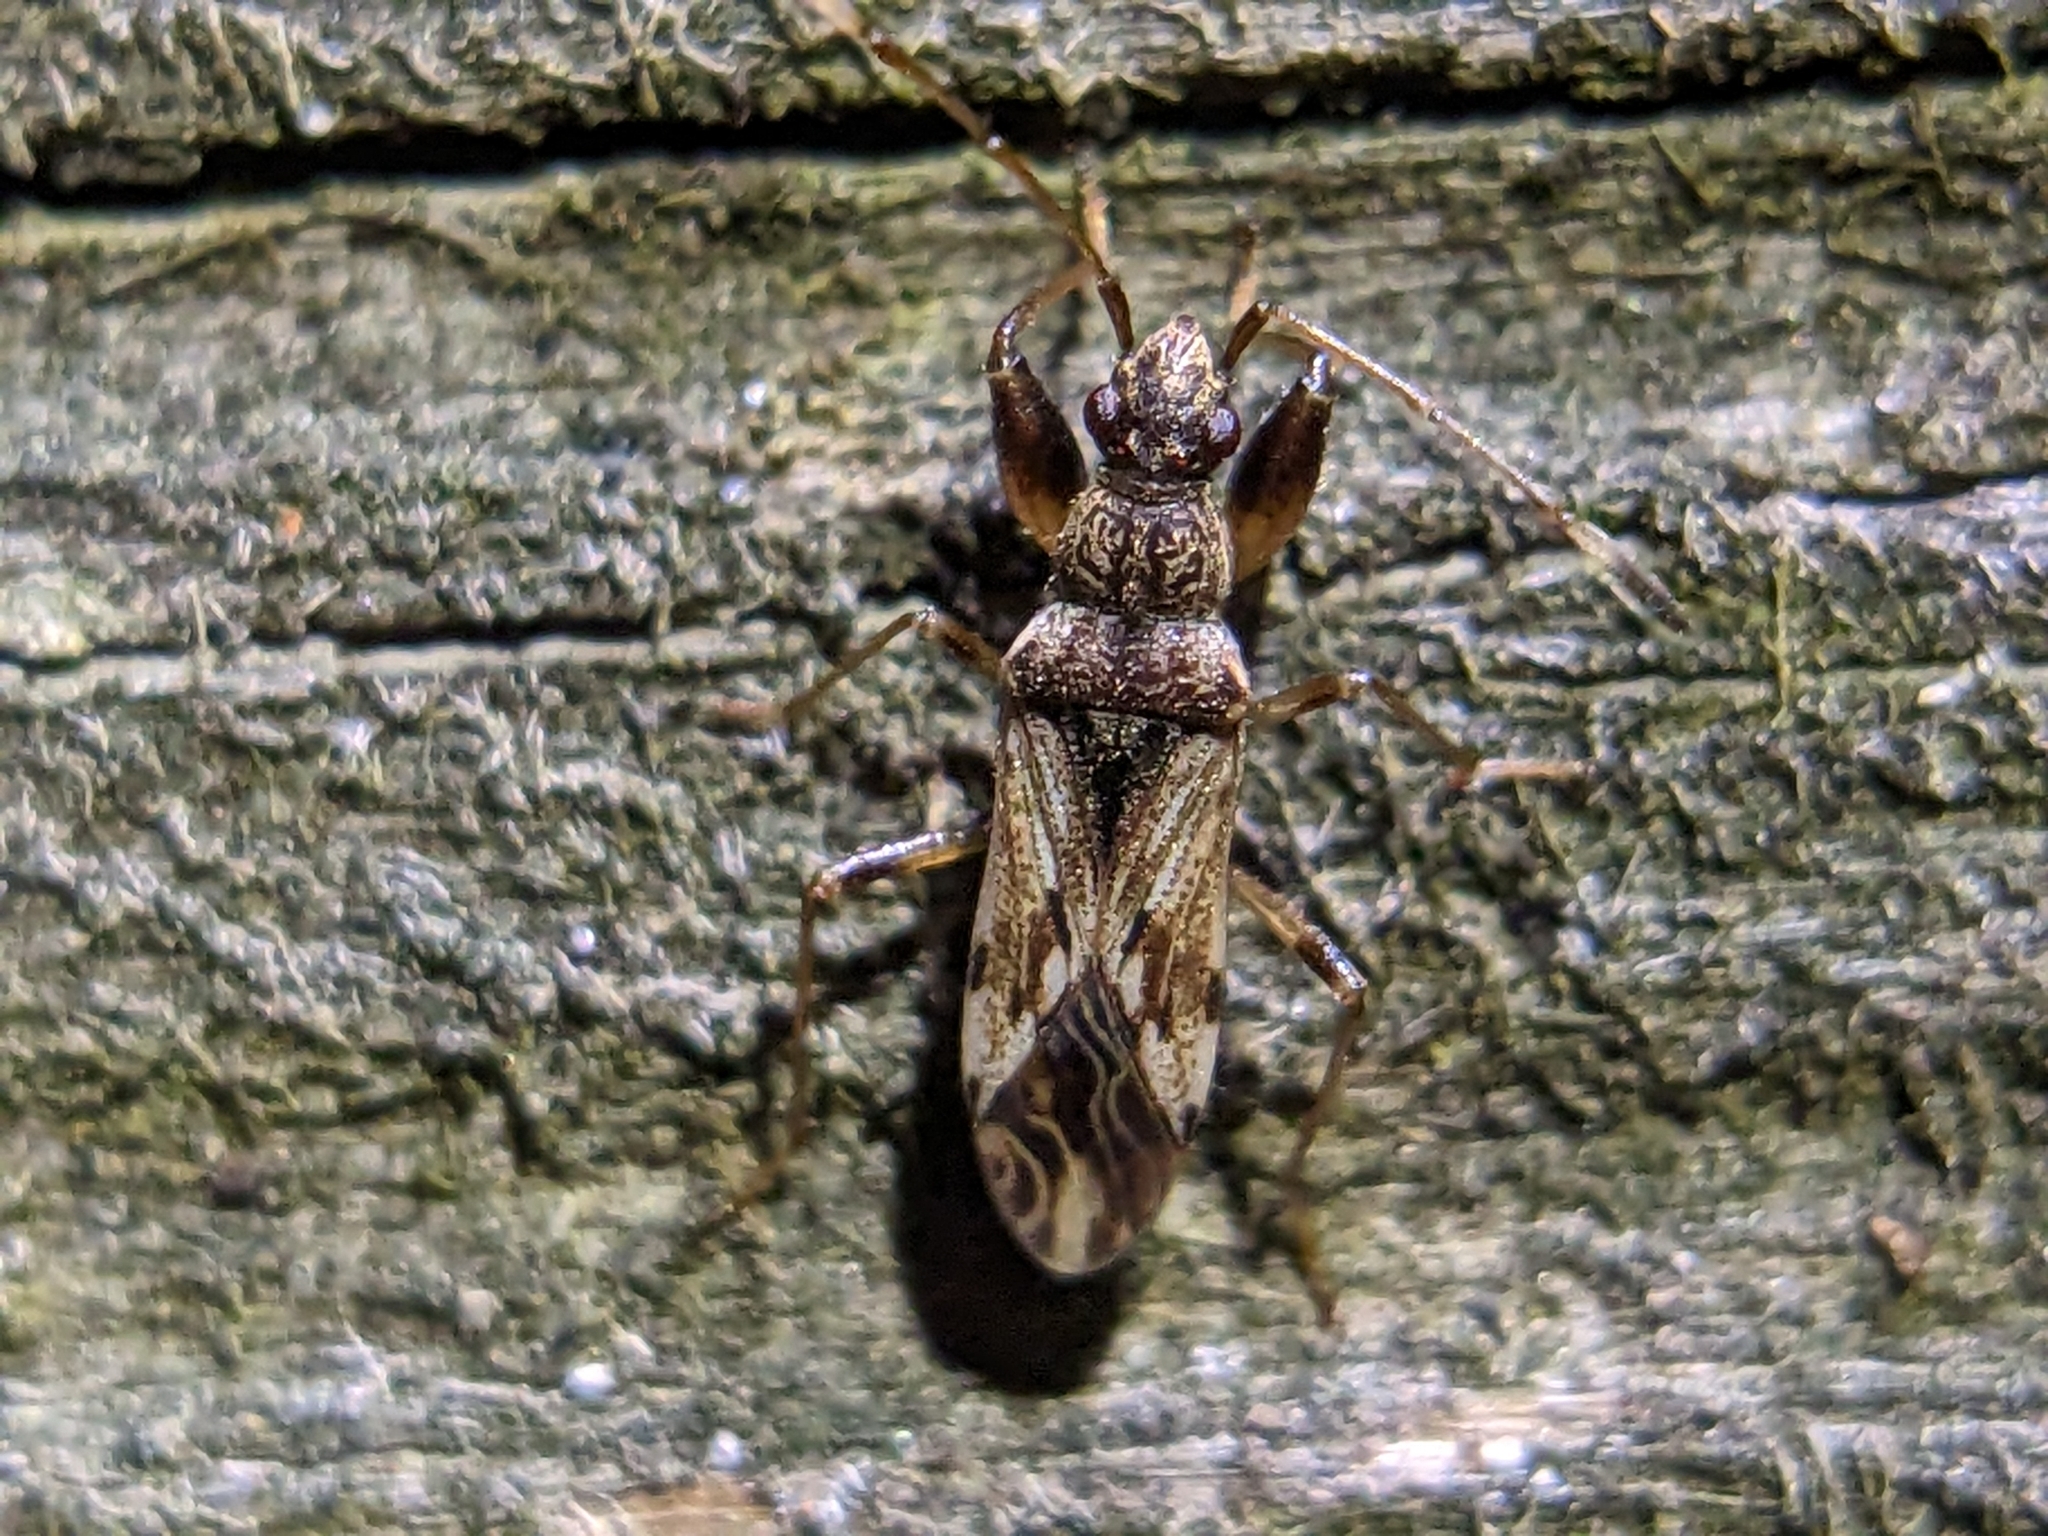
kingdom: Animalia
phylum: Arthropoda
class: Insecta
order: Hemiptera
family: Rhyparochromidae
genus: Neopamera
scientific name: Neopamera albocincta
